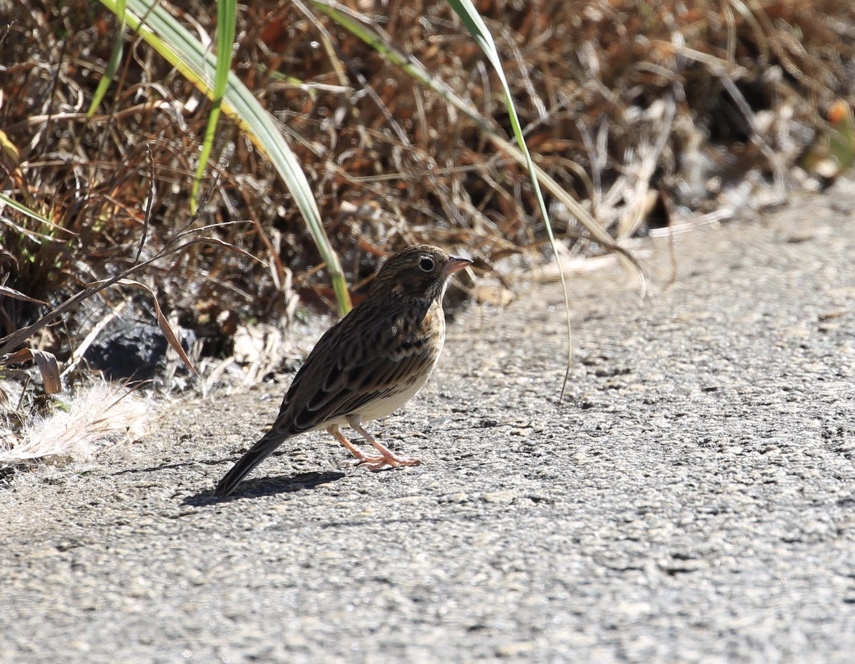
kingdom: Animalia
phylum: Chordata
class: Aves
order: Passeriformes
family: Passerellidae
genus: Pooecetes
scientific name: Pooecetes gramineus
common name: Vesper sparrow
